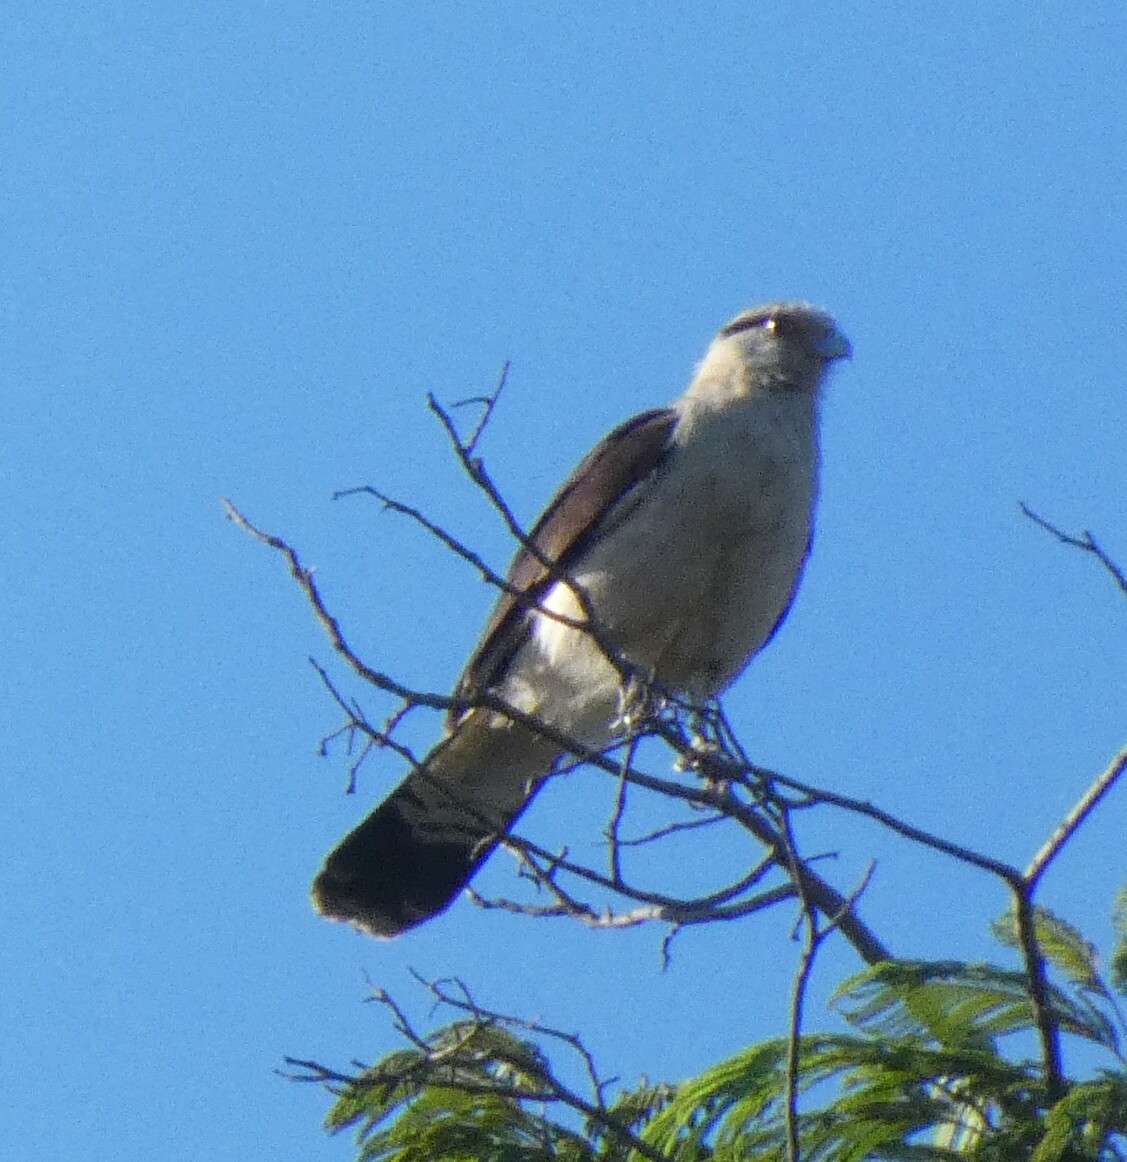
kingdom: Animalia
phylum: Chordata
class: Aves
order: Falconiformes
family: Falconidae
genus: Daptrius
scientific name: Daptrius
